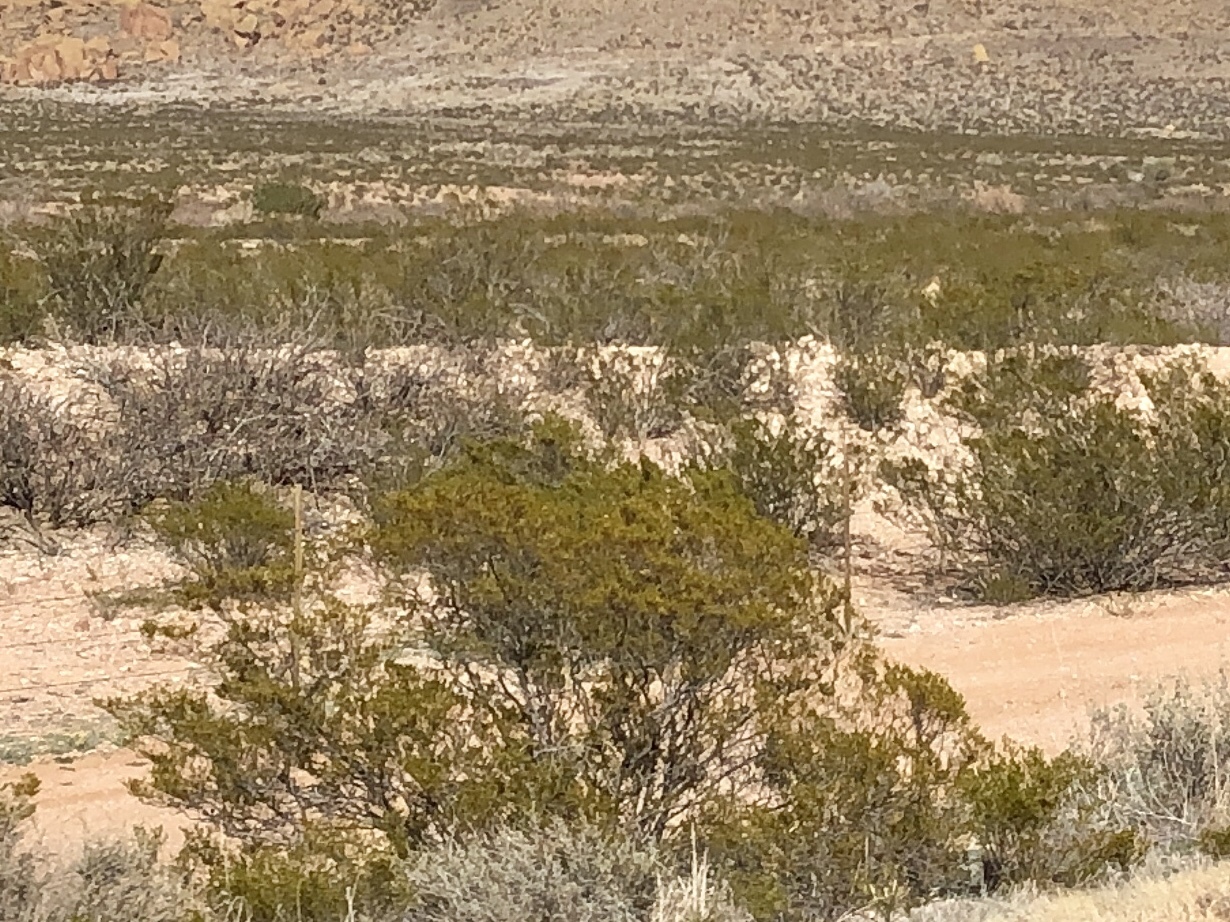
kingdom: Plantae
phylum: Tracheophyta
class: Magnoliopsida
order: Zygophyllales
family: Zygophyllaceae
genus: Larrea
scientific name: Larrea tridentata
